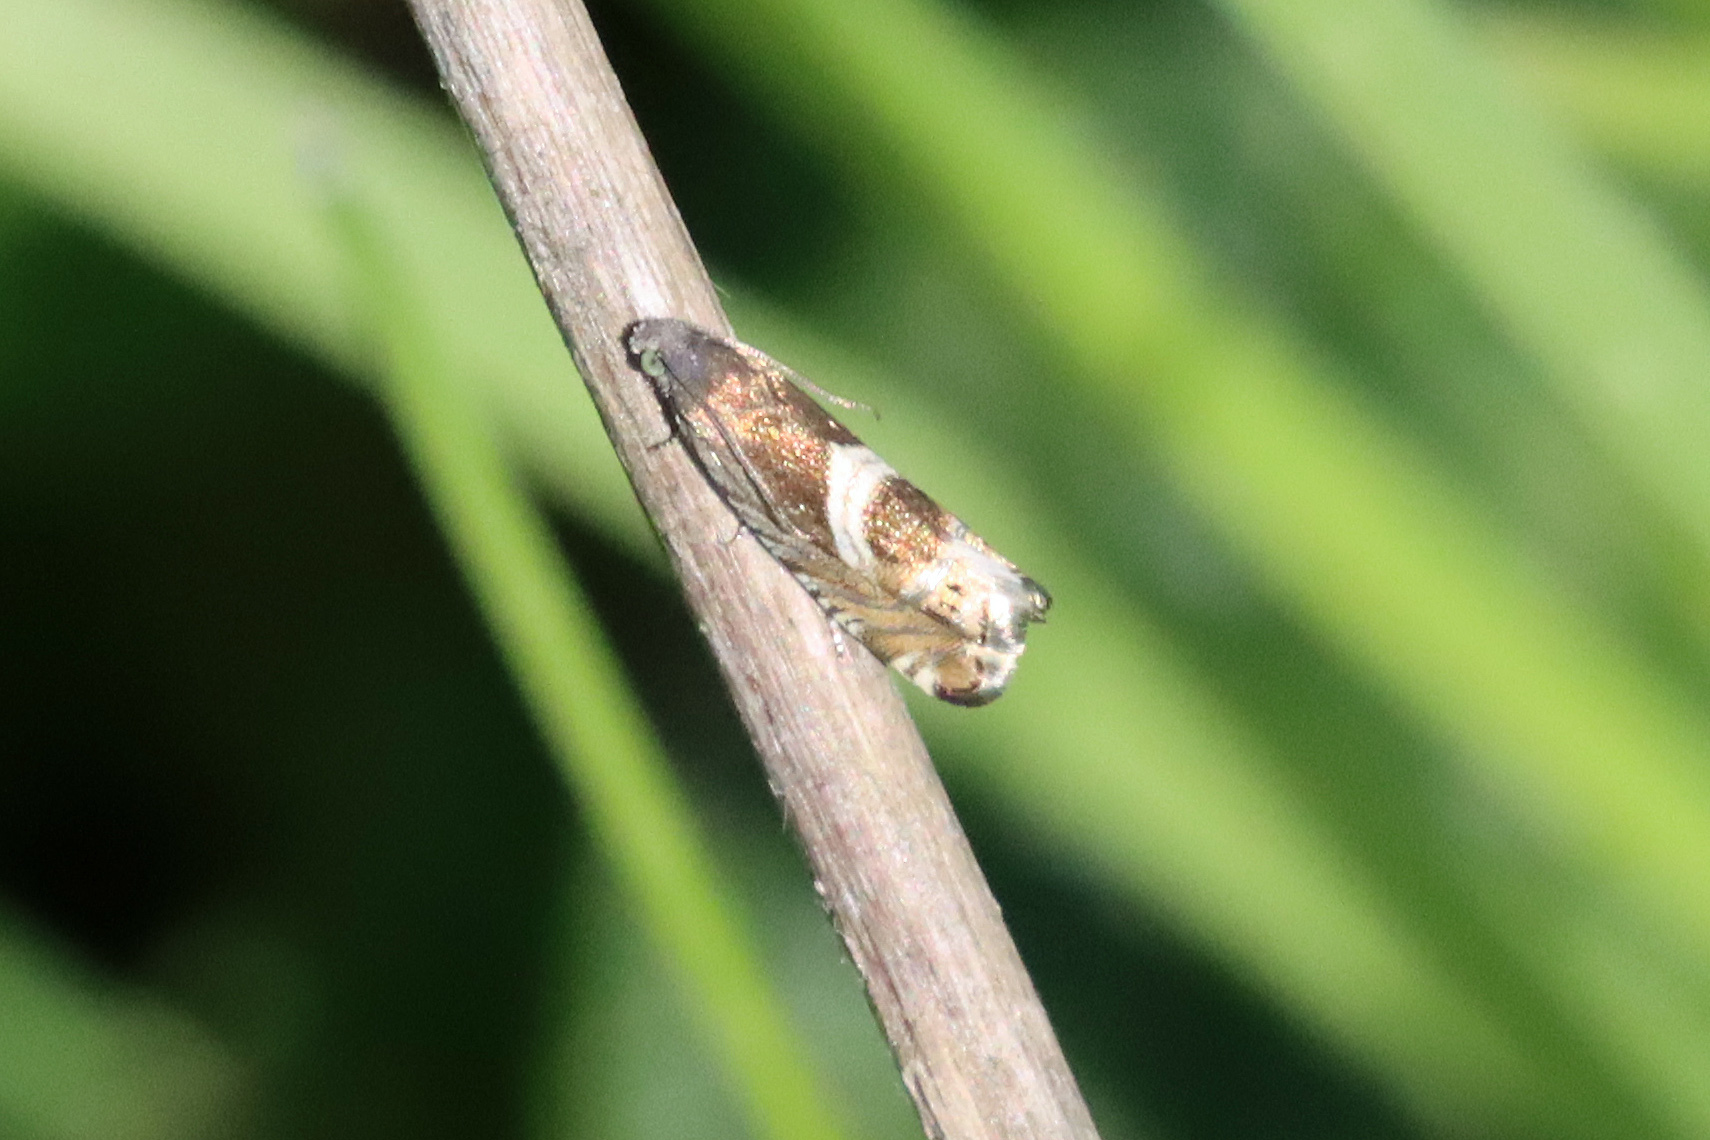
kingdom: Animalia
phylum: Arthropoda
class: Insecta
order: Lepidoptera
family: Tortricidae
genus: Grapholita
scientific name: Grapholita
